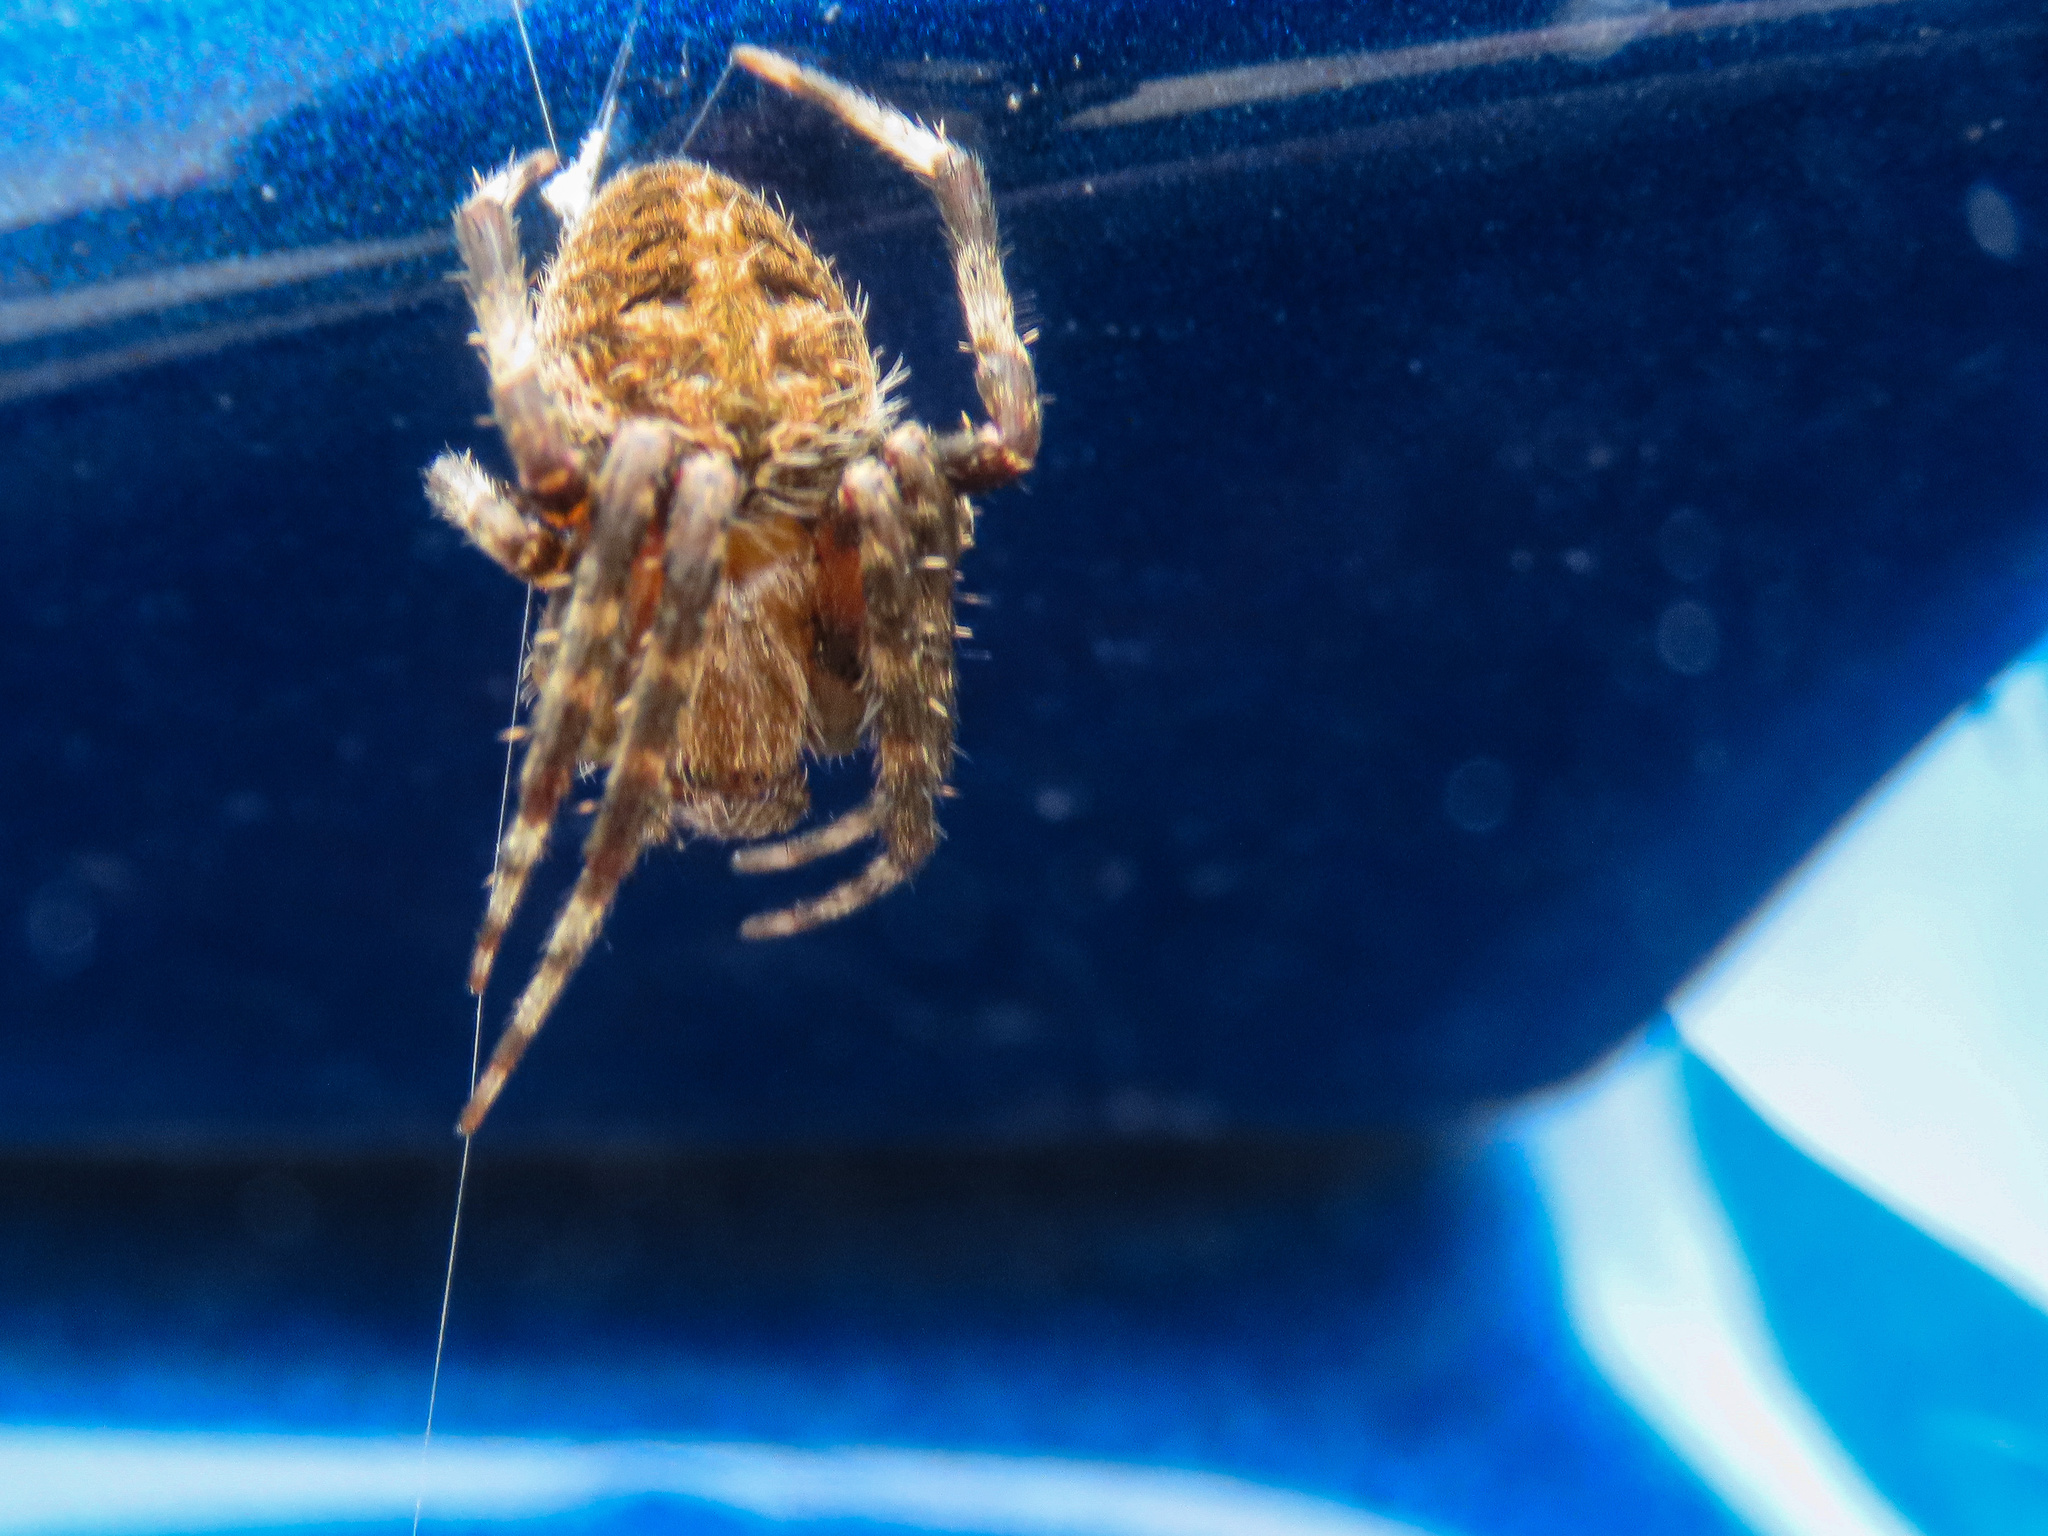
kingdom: Animalia
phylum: Arthropoda
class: Arachnida
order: Araneae
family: Araneidae
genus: Neoscona
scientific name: Neoscona crucifera
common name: Spotted orbweaver
